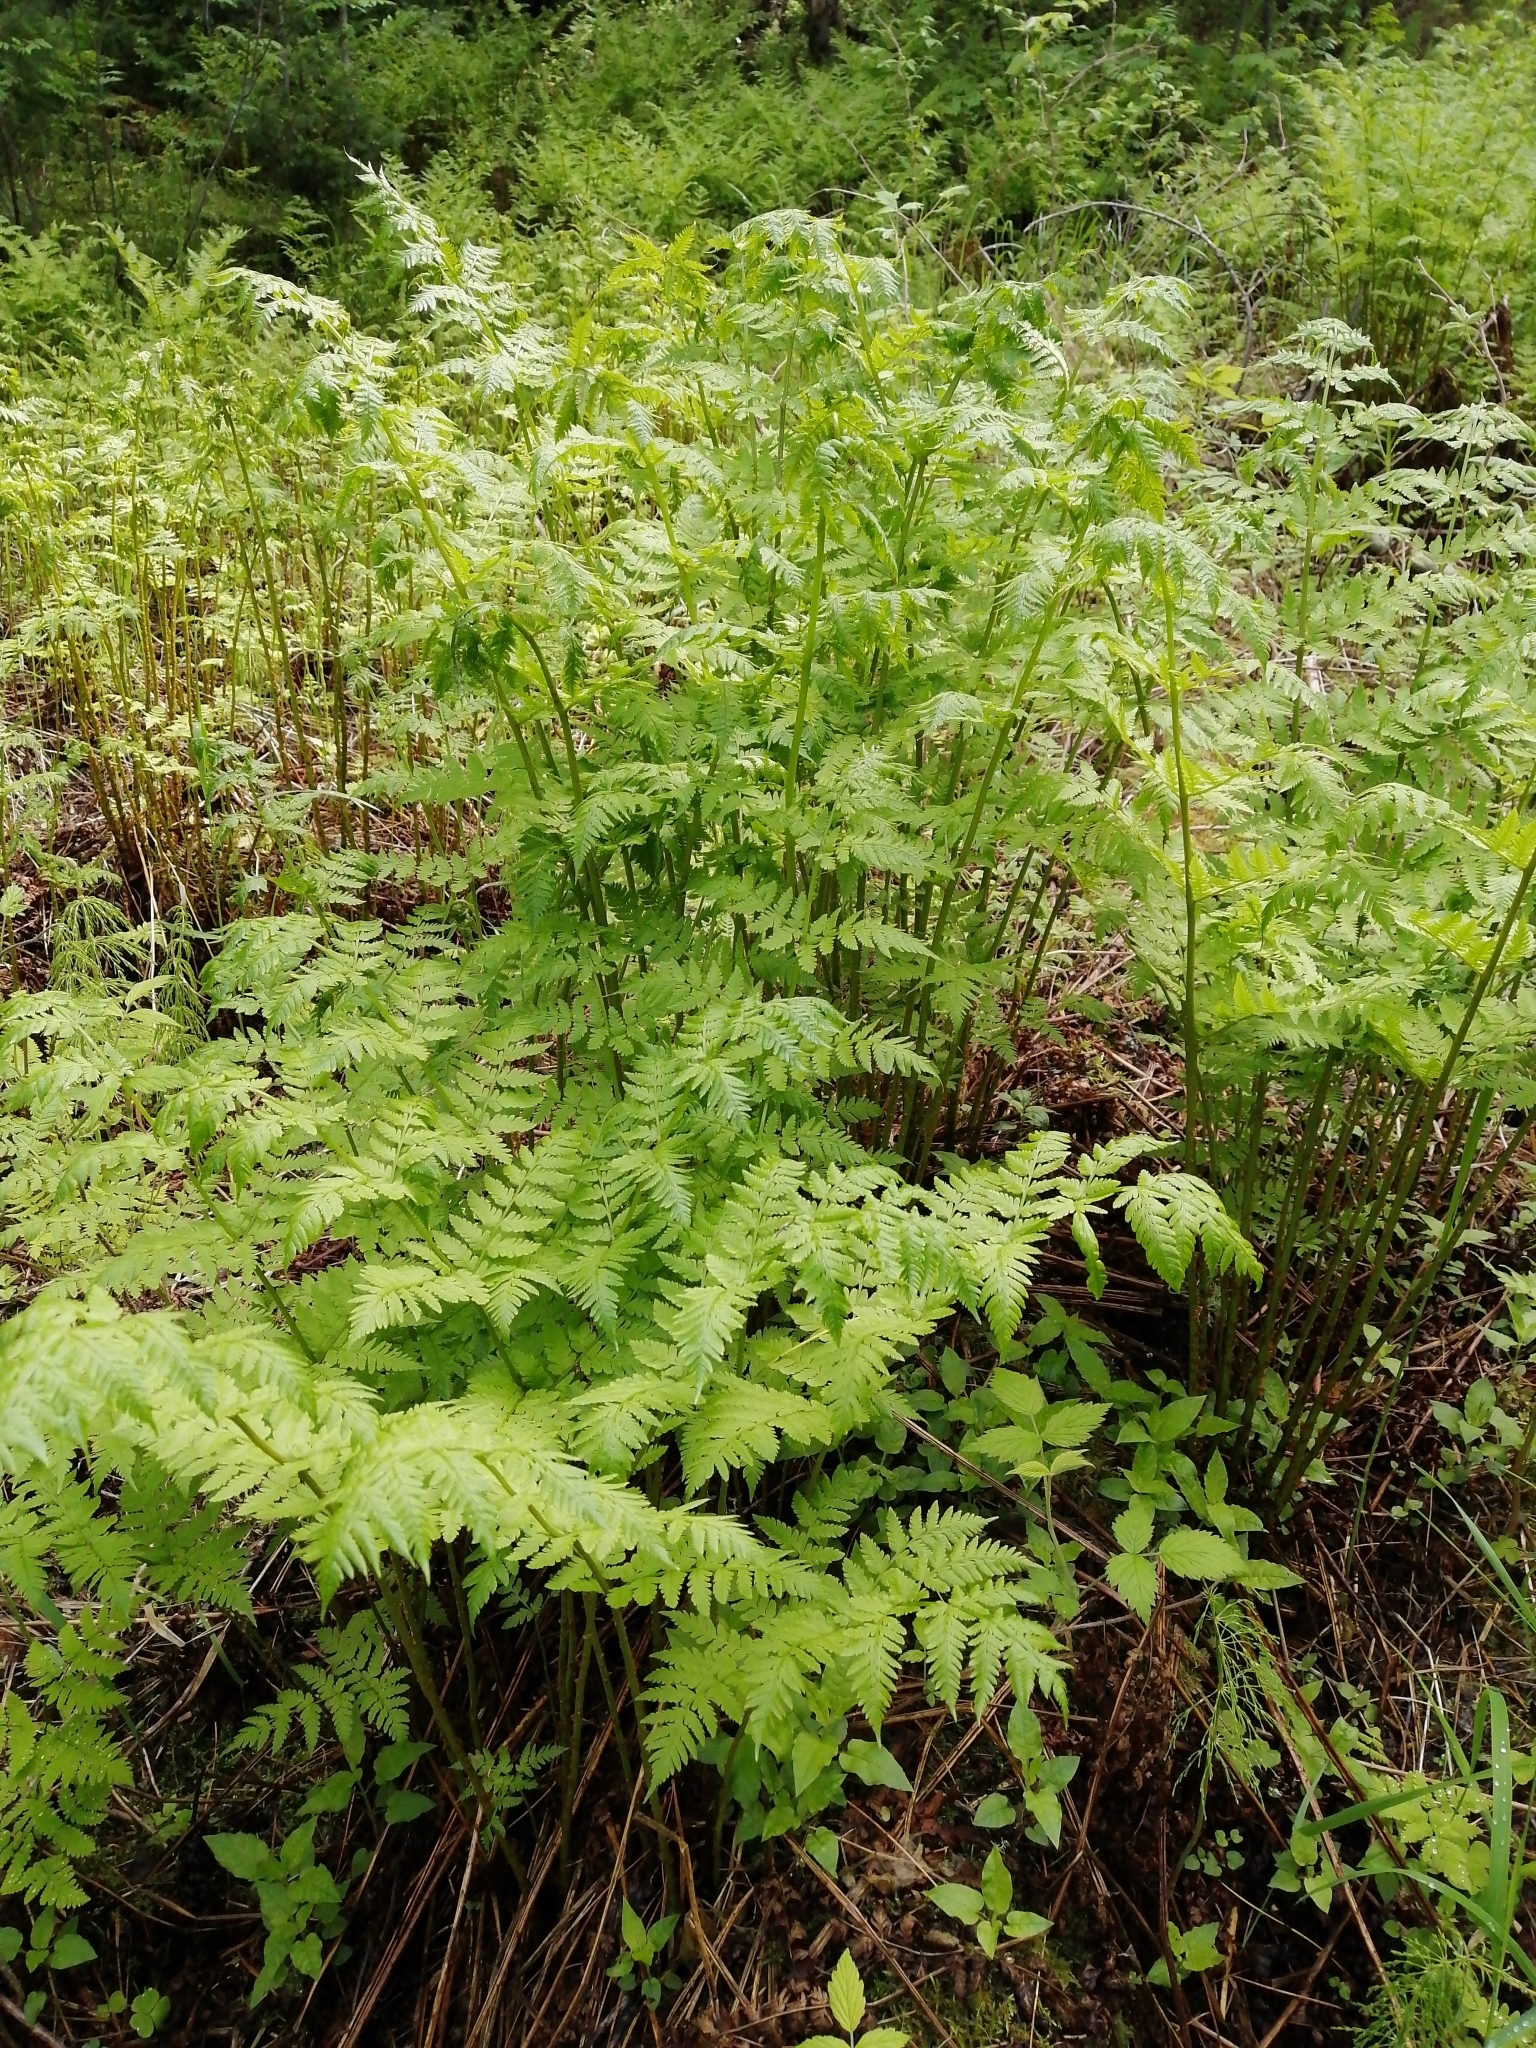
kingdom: Plantae
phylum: Tracheophyta
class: Polypodiopsida
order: Polypodiales
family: Dryopteridaceae
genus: Dryopteris
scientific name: Dryopteris expansa
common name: Northern buckler fern
